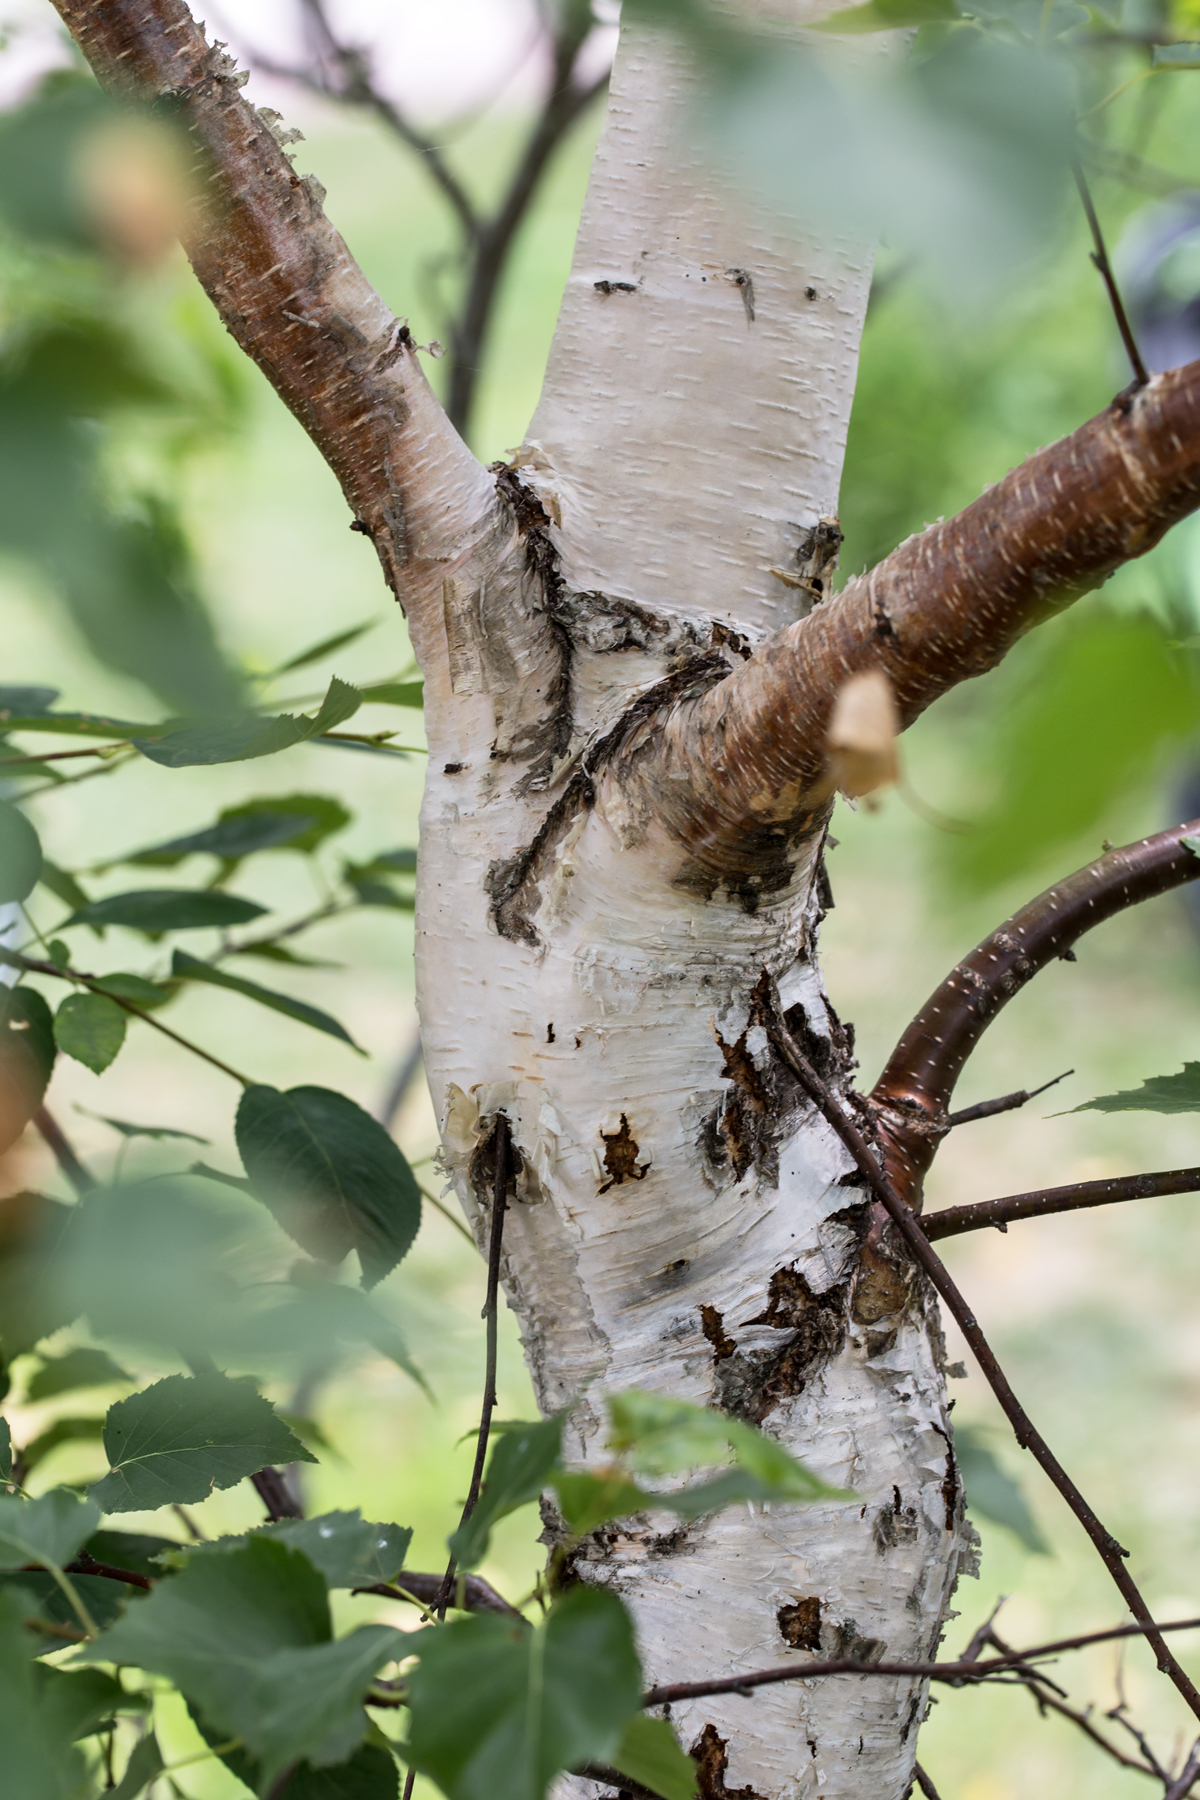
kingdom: Plantae
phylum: Tracheophyta
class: Magnoliopsida
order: Fagales
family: Betulaceae
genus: Betula
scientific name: Betula papyrifera
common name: Paper birch
